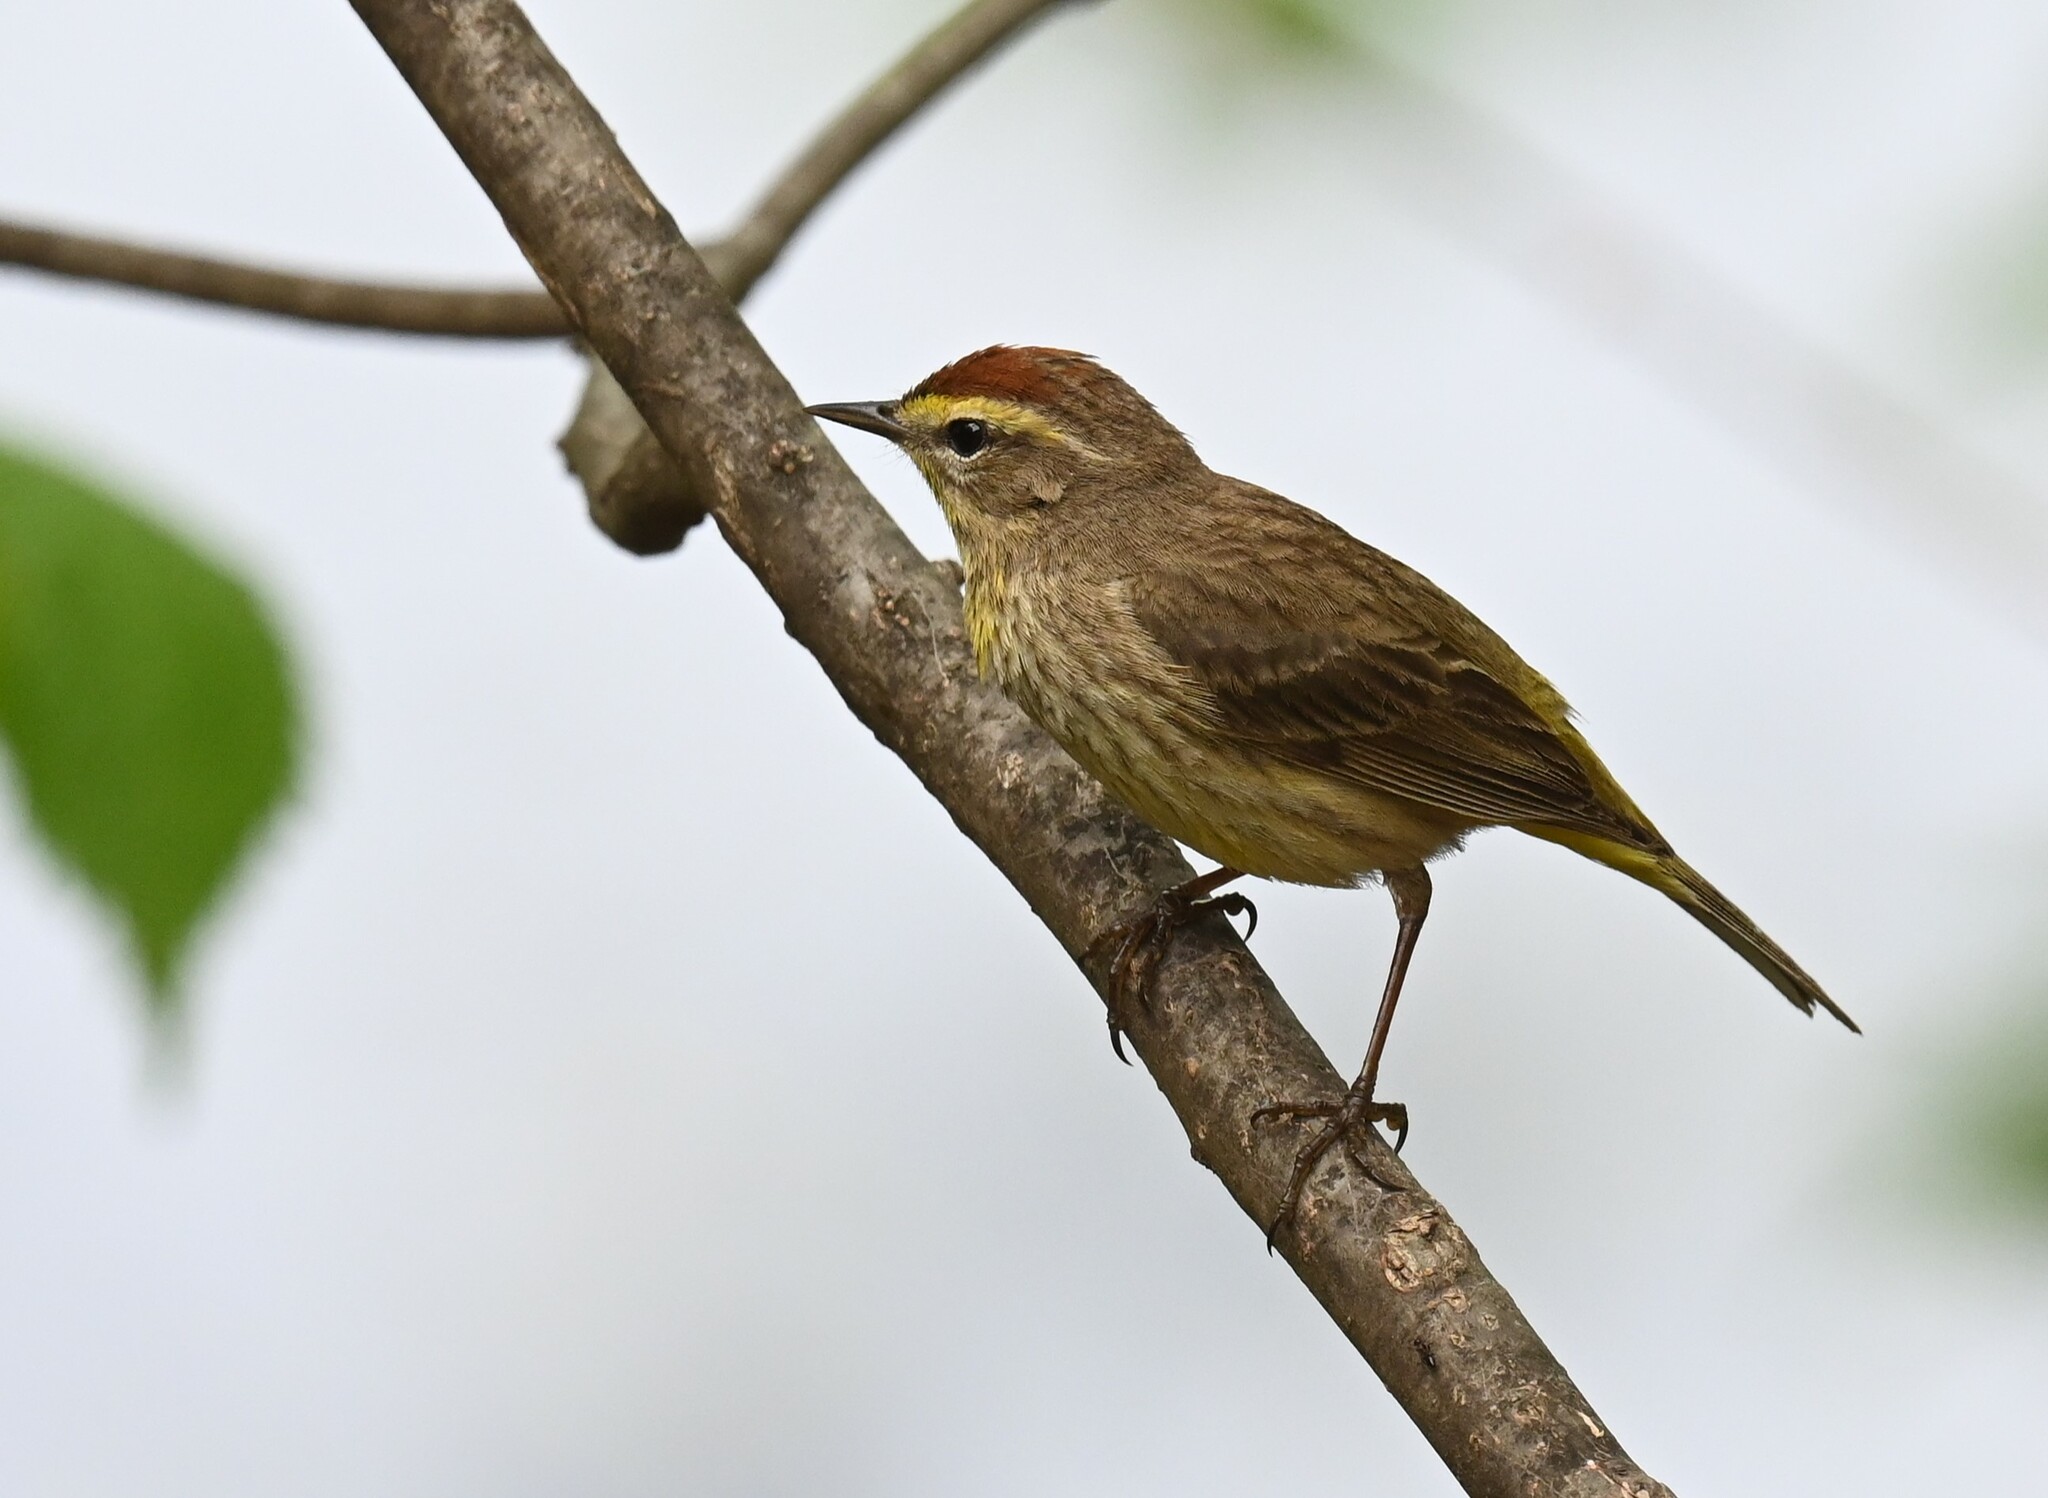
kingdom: Animalia
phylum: Chordata
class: Aves
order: Passeriformes
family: Parulidae
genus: Setophaga
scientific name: Setophaga palmarum
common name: Palm warbler
